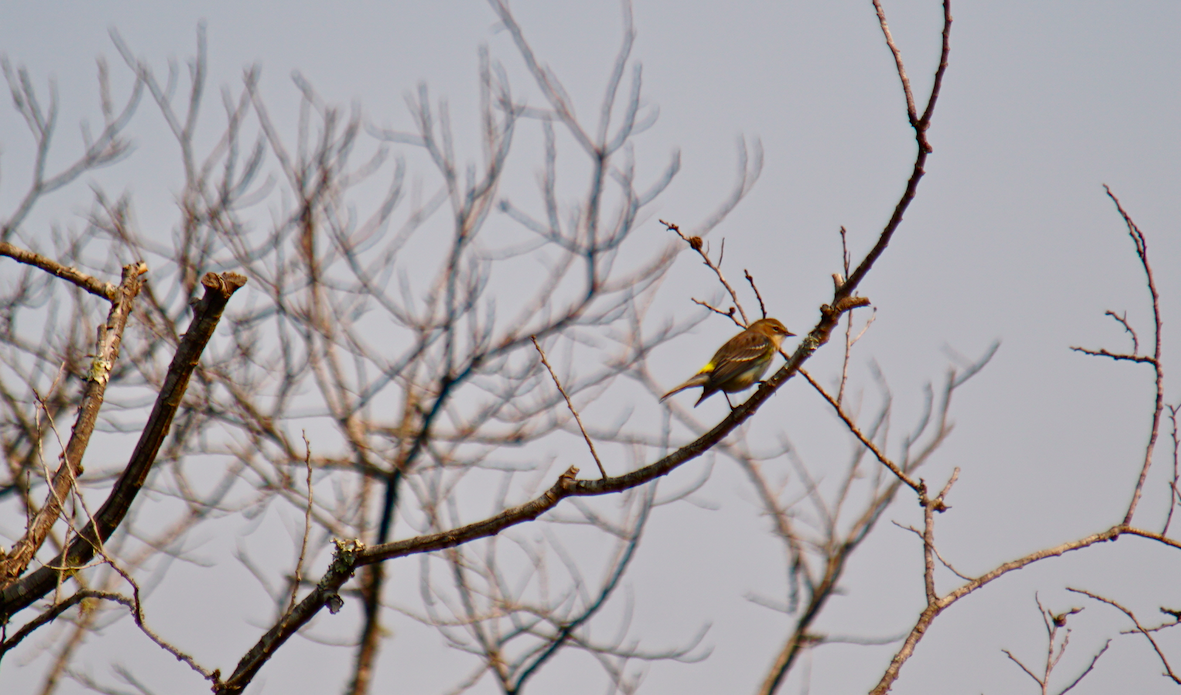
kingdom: Animalia
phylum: Chordata
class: Aves
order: Passeriformes
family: Parulidae
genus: Setophaga
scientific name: Setophaga coronata
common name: Myrtle warbler
